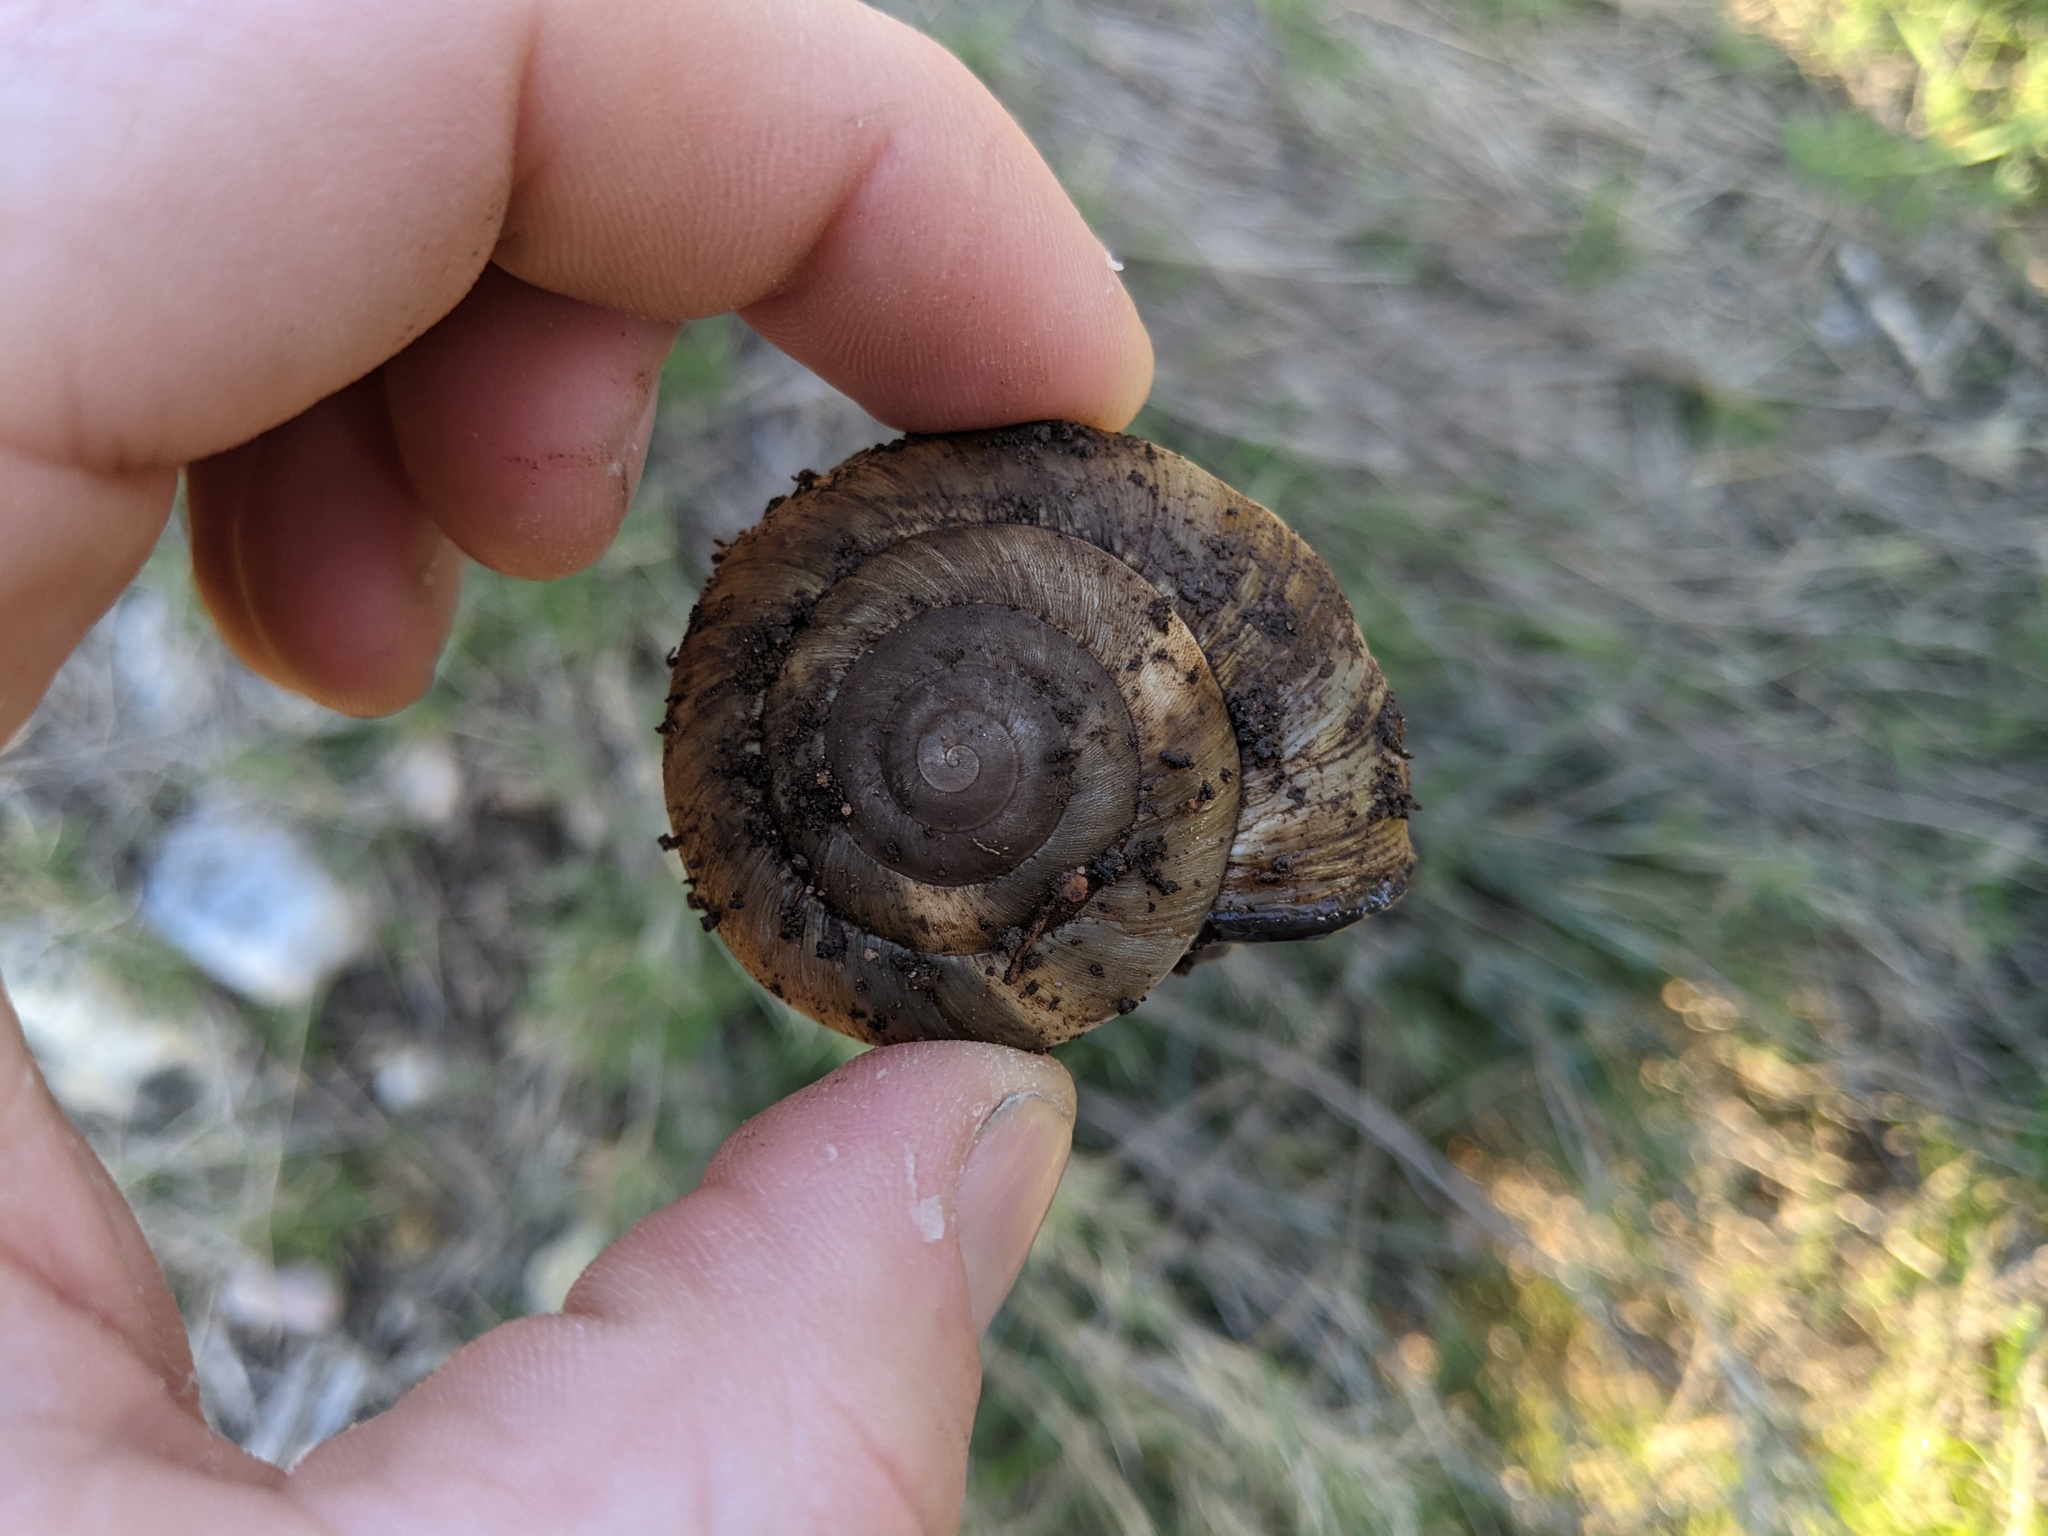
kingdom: Animalia
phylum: Mollusca
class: Gastropoda
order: Stylommatophora
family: Zonitidae
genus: Zonites
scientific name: Zonites algirus
